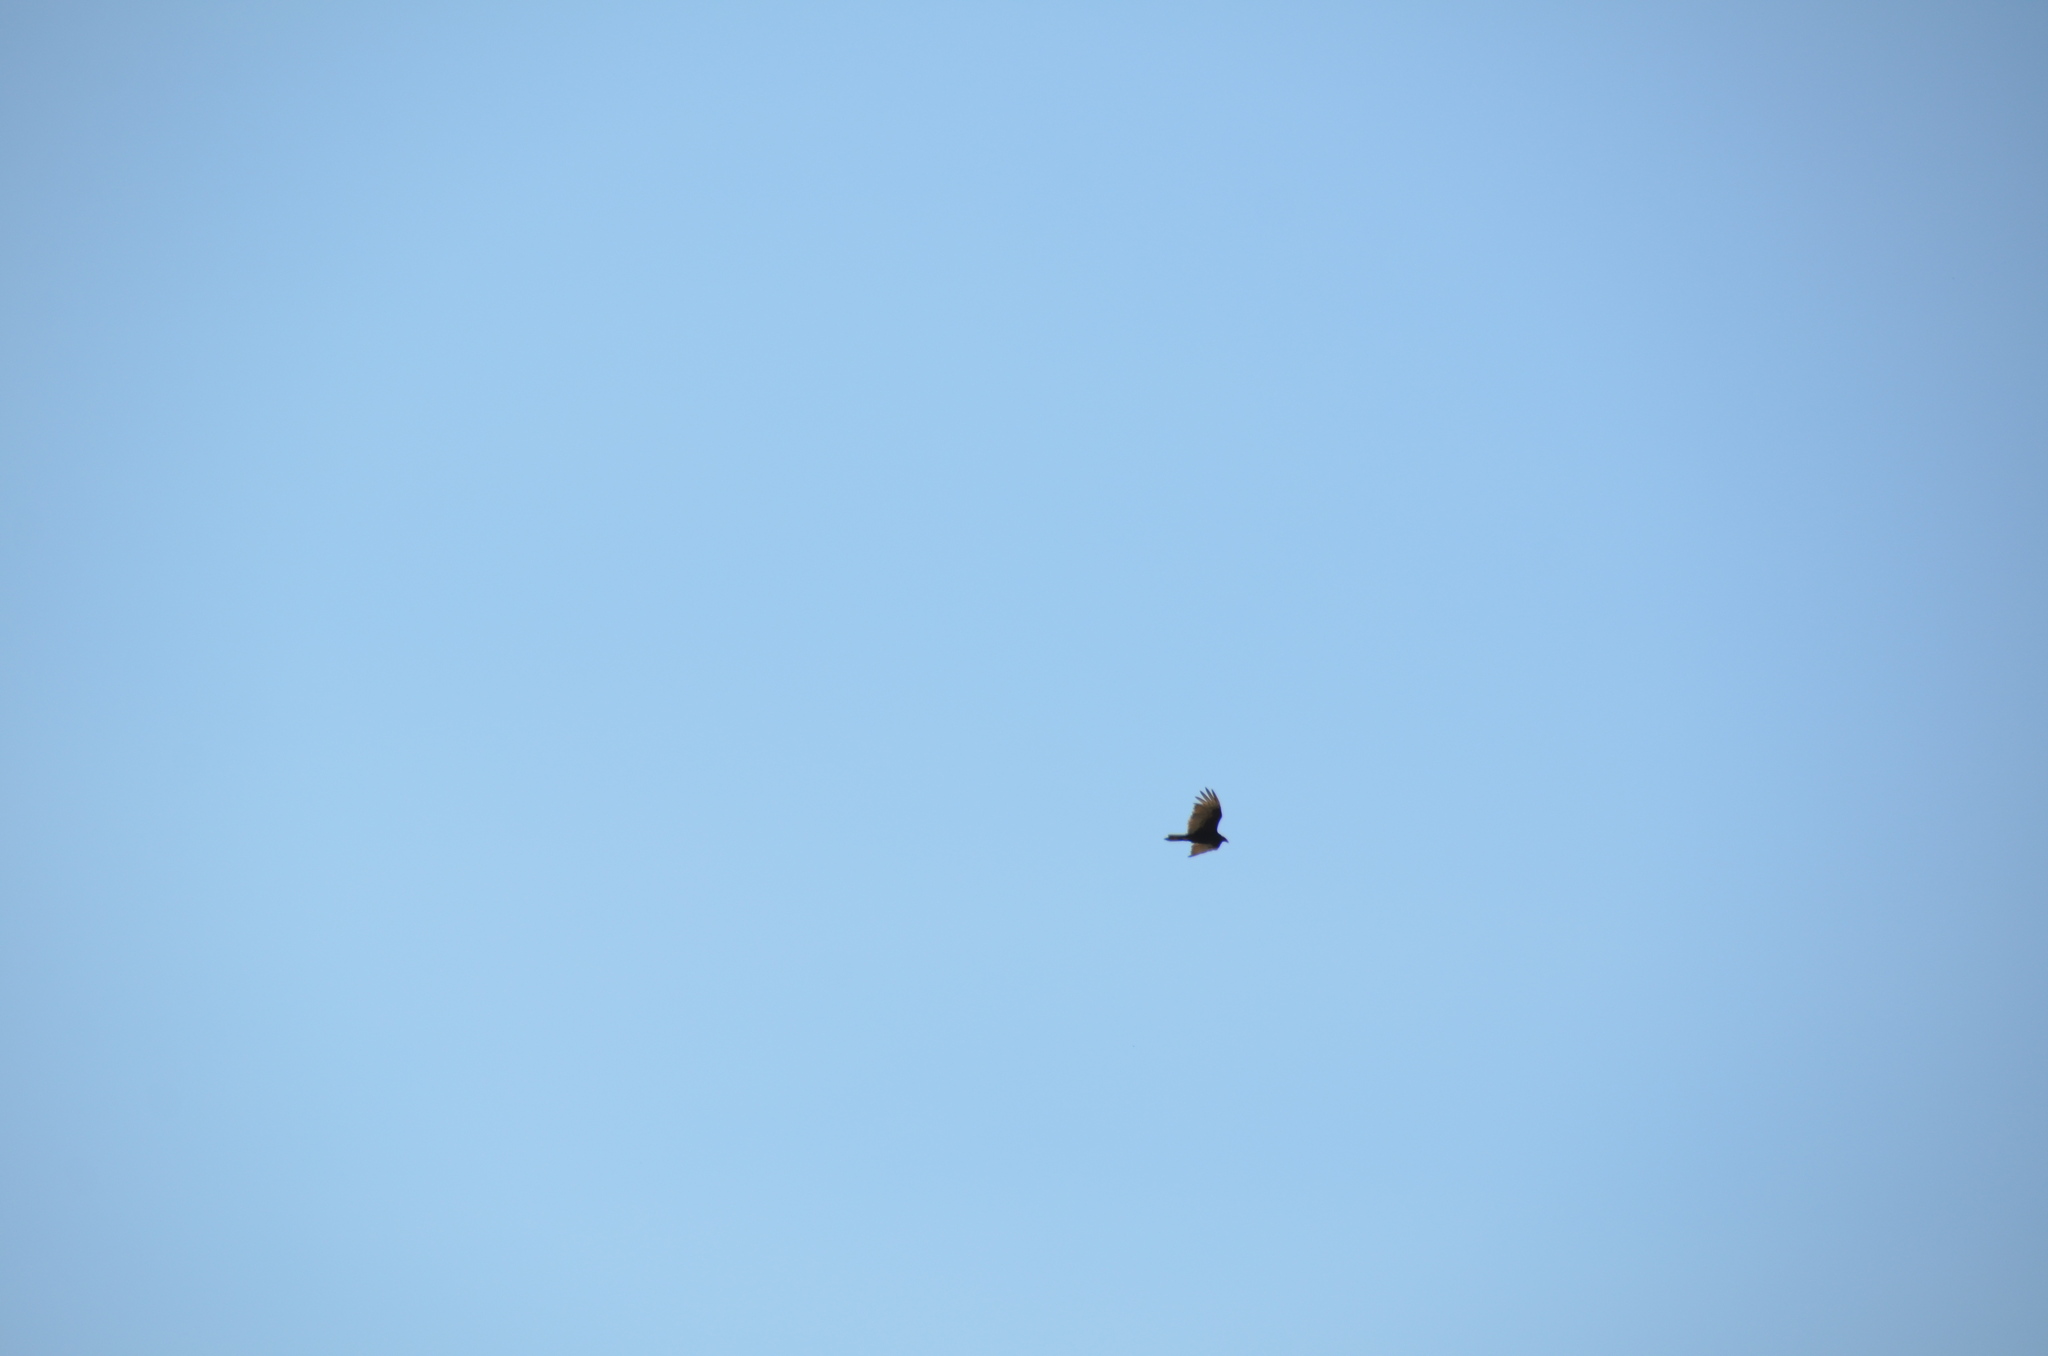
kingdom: Animalia
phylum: Chordata
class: Aves
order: Accipitriformes
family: Cathartidae
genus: Cathartes
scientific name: Cathartes aura
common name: Turkey vulture
